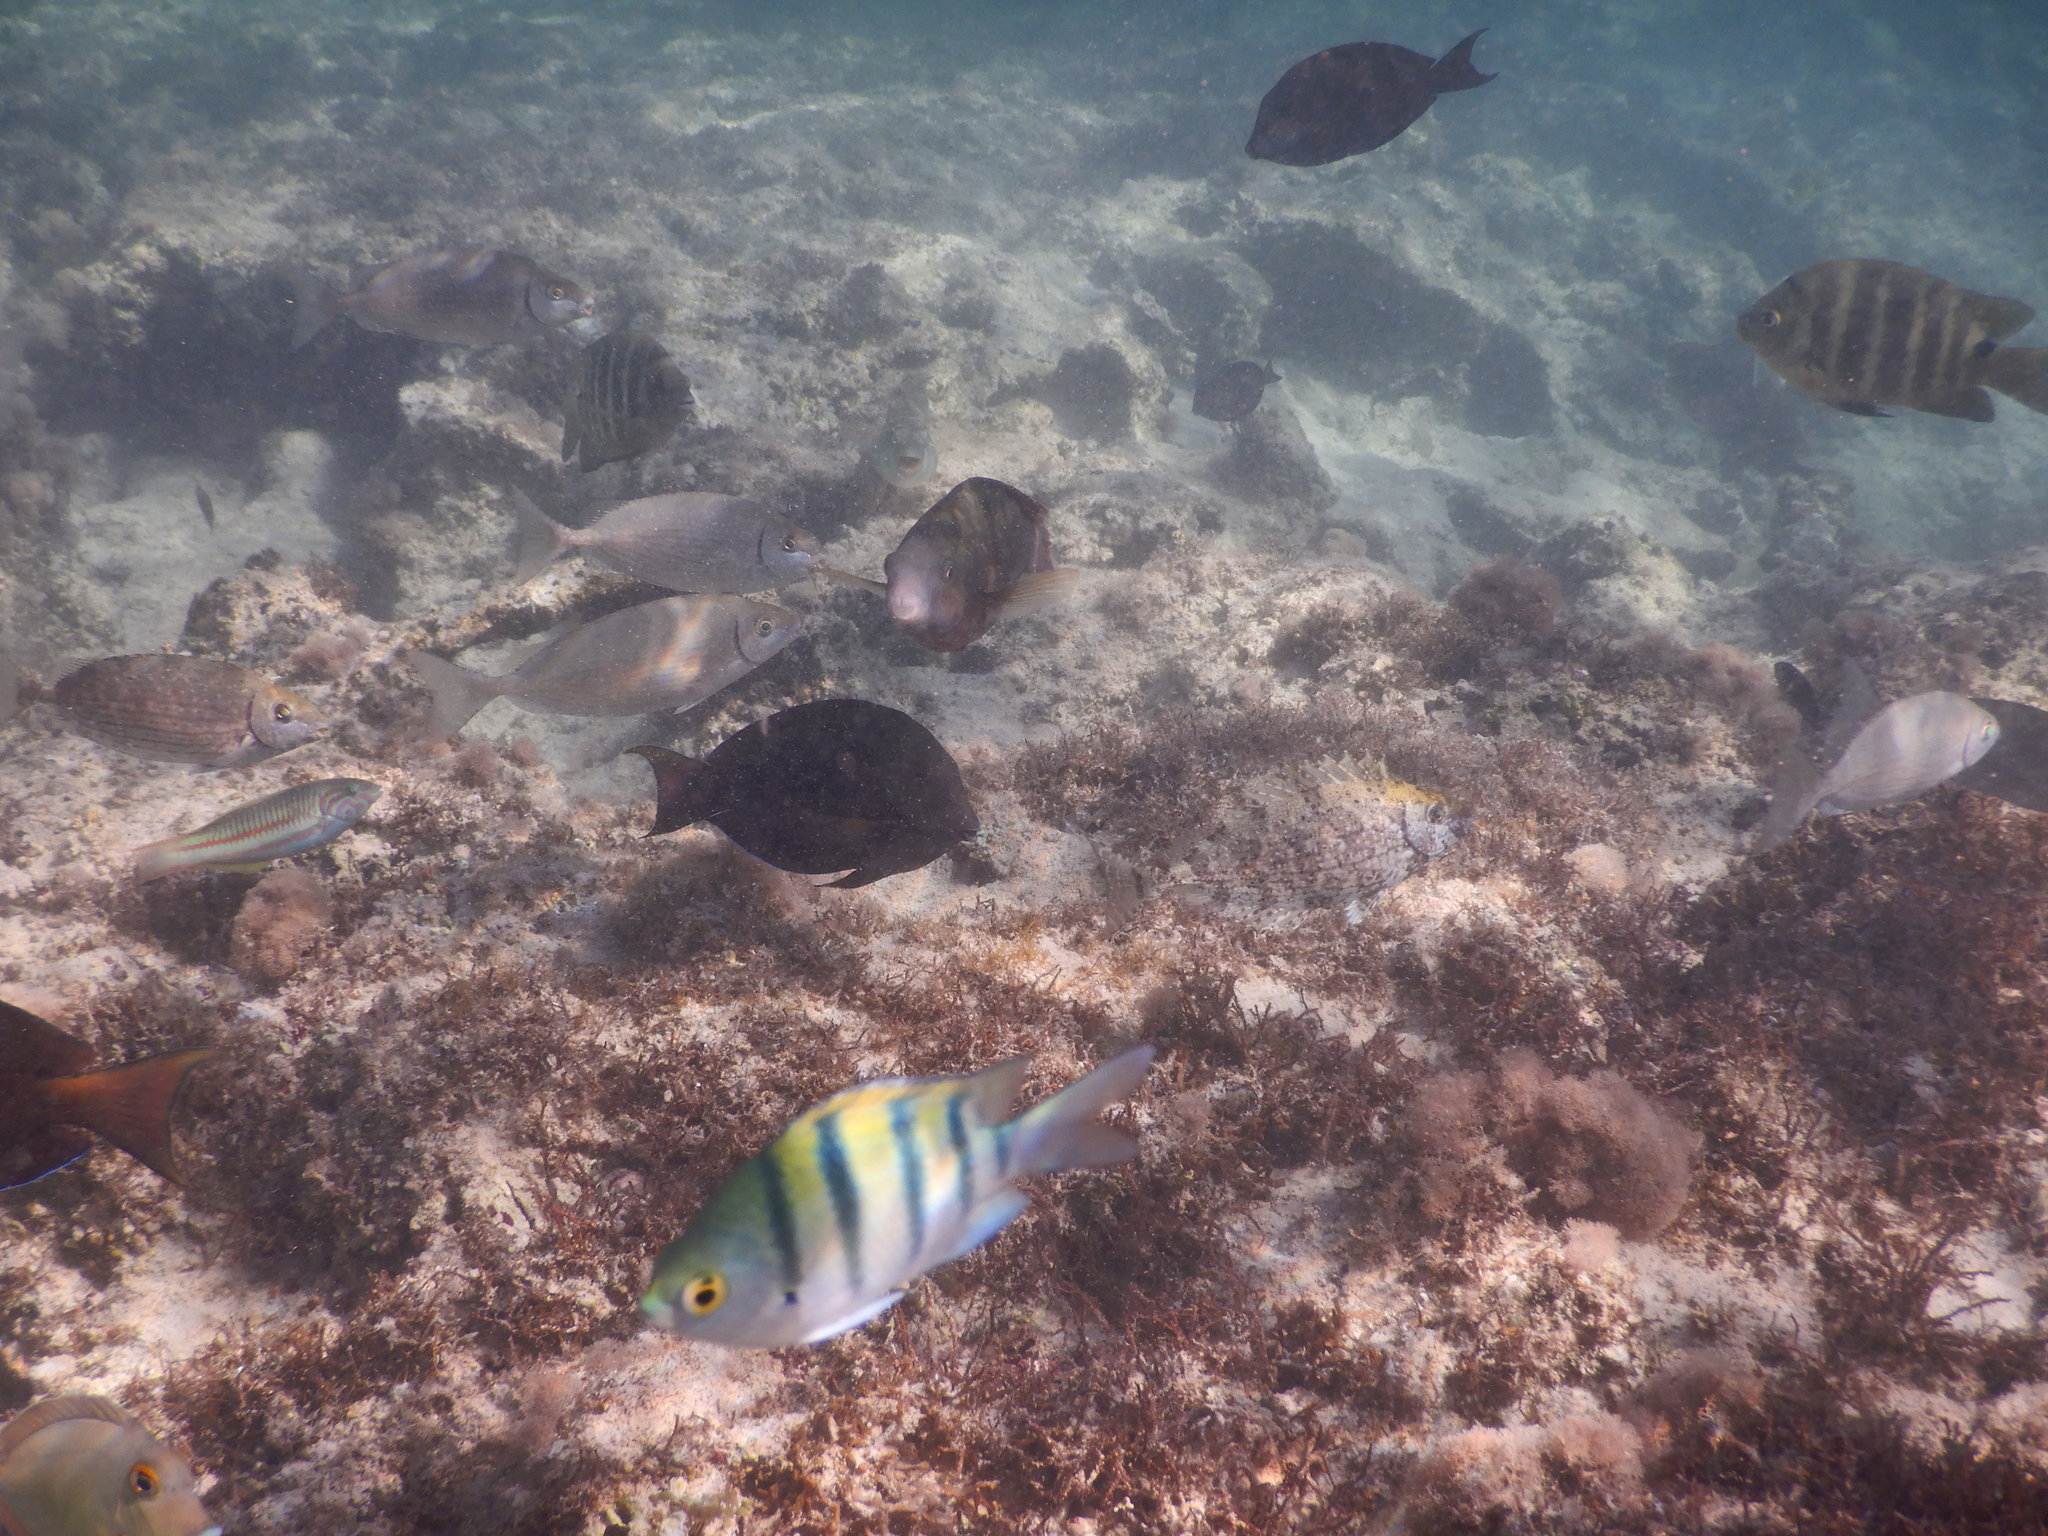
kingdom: Animalia
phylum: Chordata
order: Perciformes
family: Siganidae
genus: Siganus
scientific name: Siganus rivulatus
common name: Marbled spinefoot
